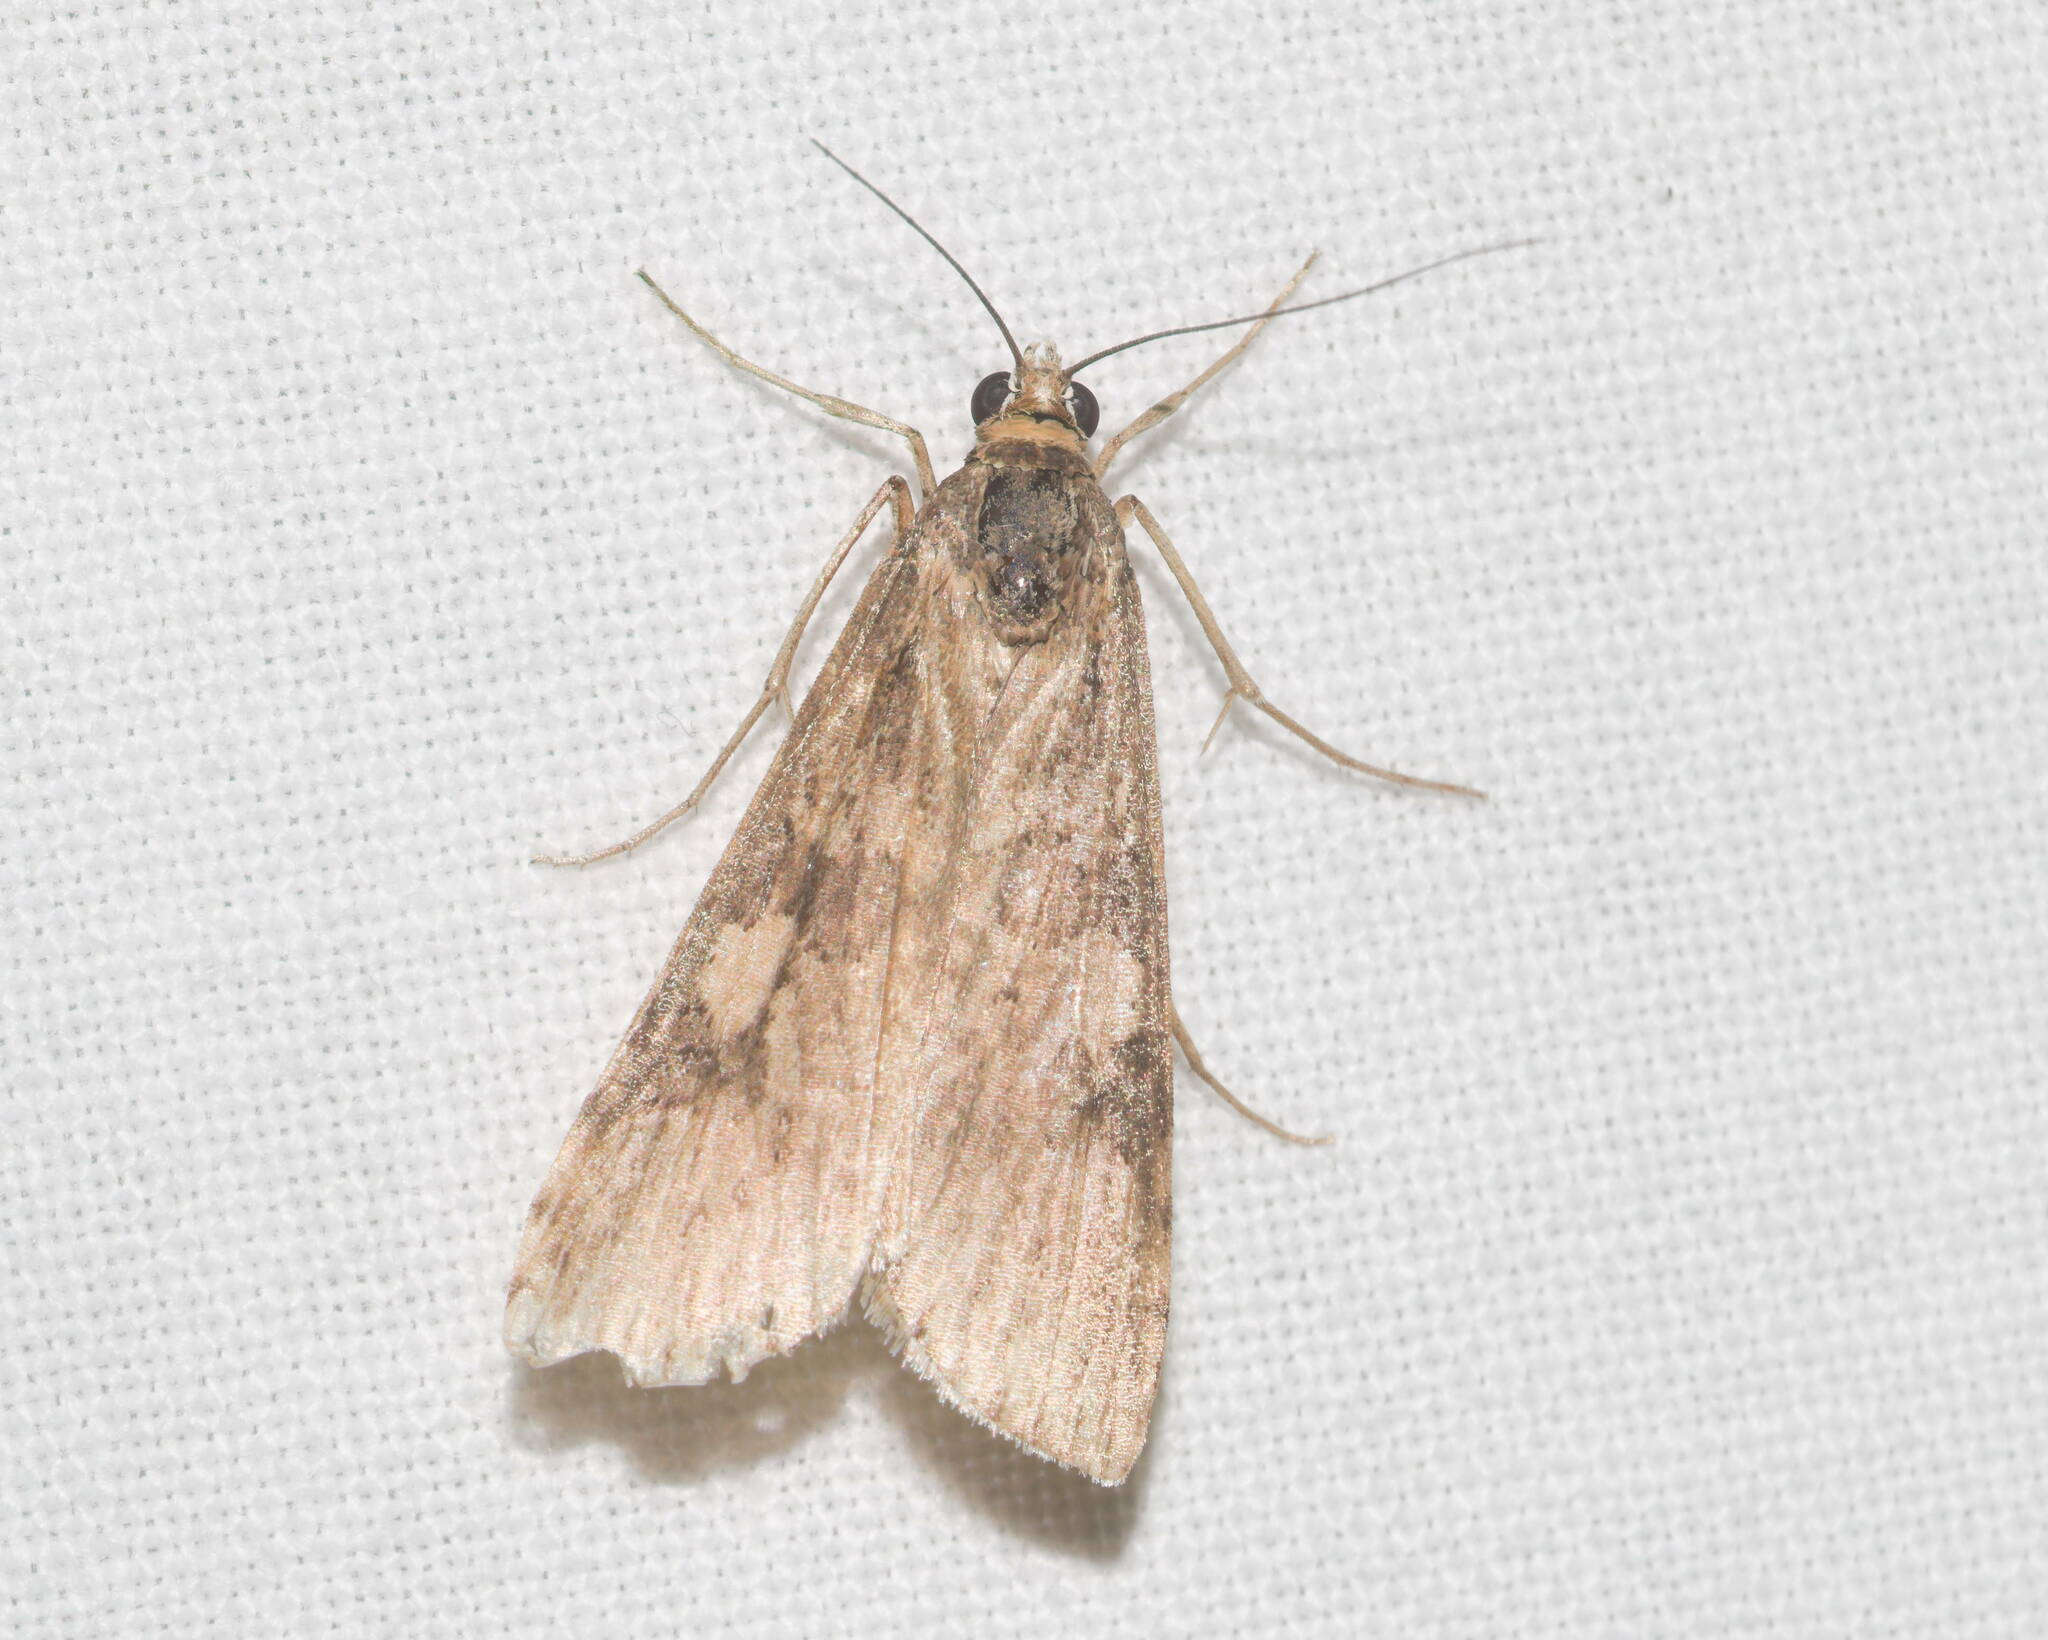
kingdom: Animalia
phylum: Arthropoda
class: Insecta
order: Lepidoptera
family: Crambidae
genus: Nomophila
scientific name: Nomophila noctuella
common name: Rush veneer
